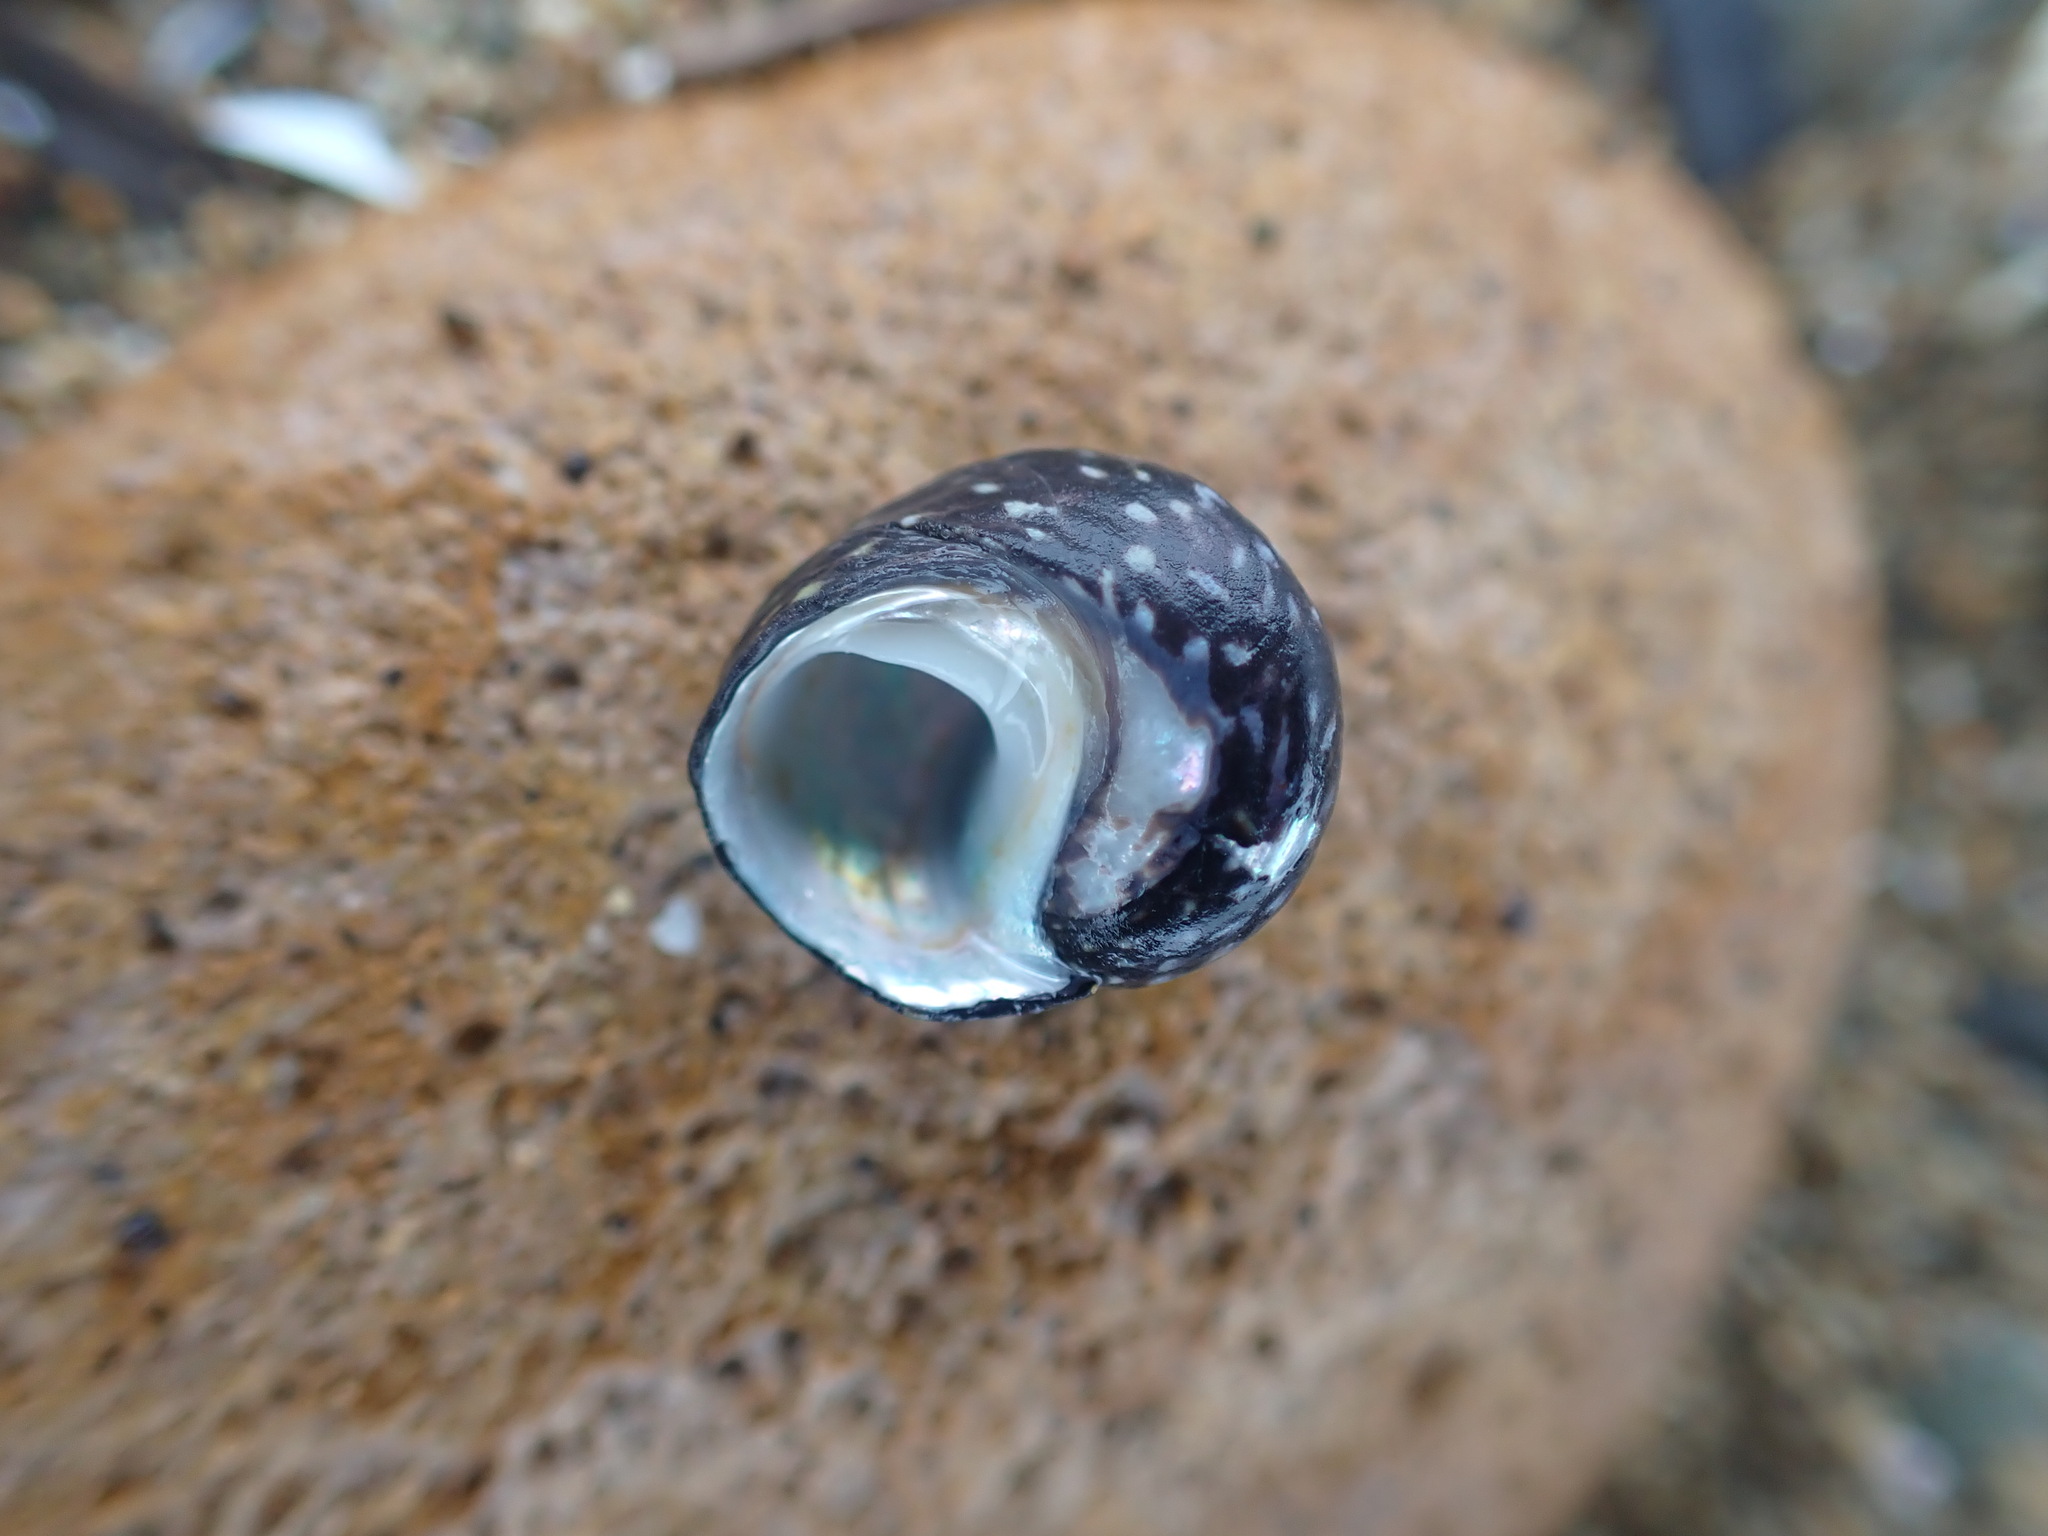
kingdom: Animalia
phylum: Mollusca
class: Gastropoda
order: Trochida
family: Trochidae
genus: Diloma
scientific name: Diloma aridum
